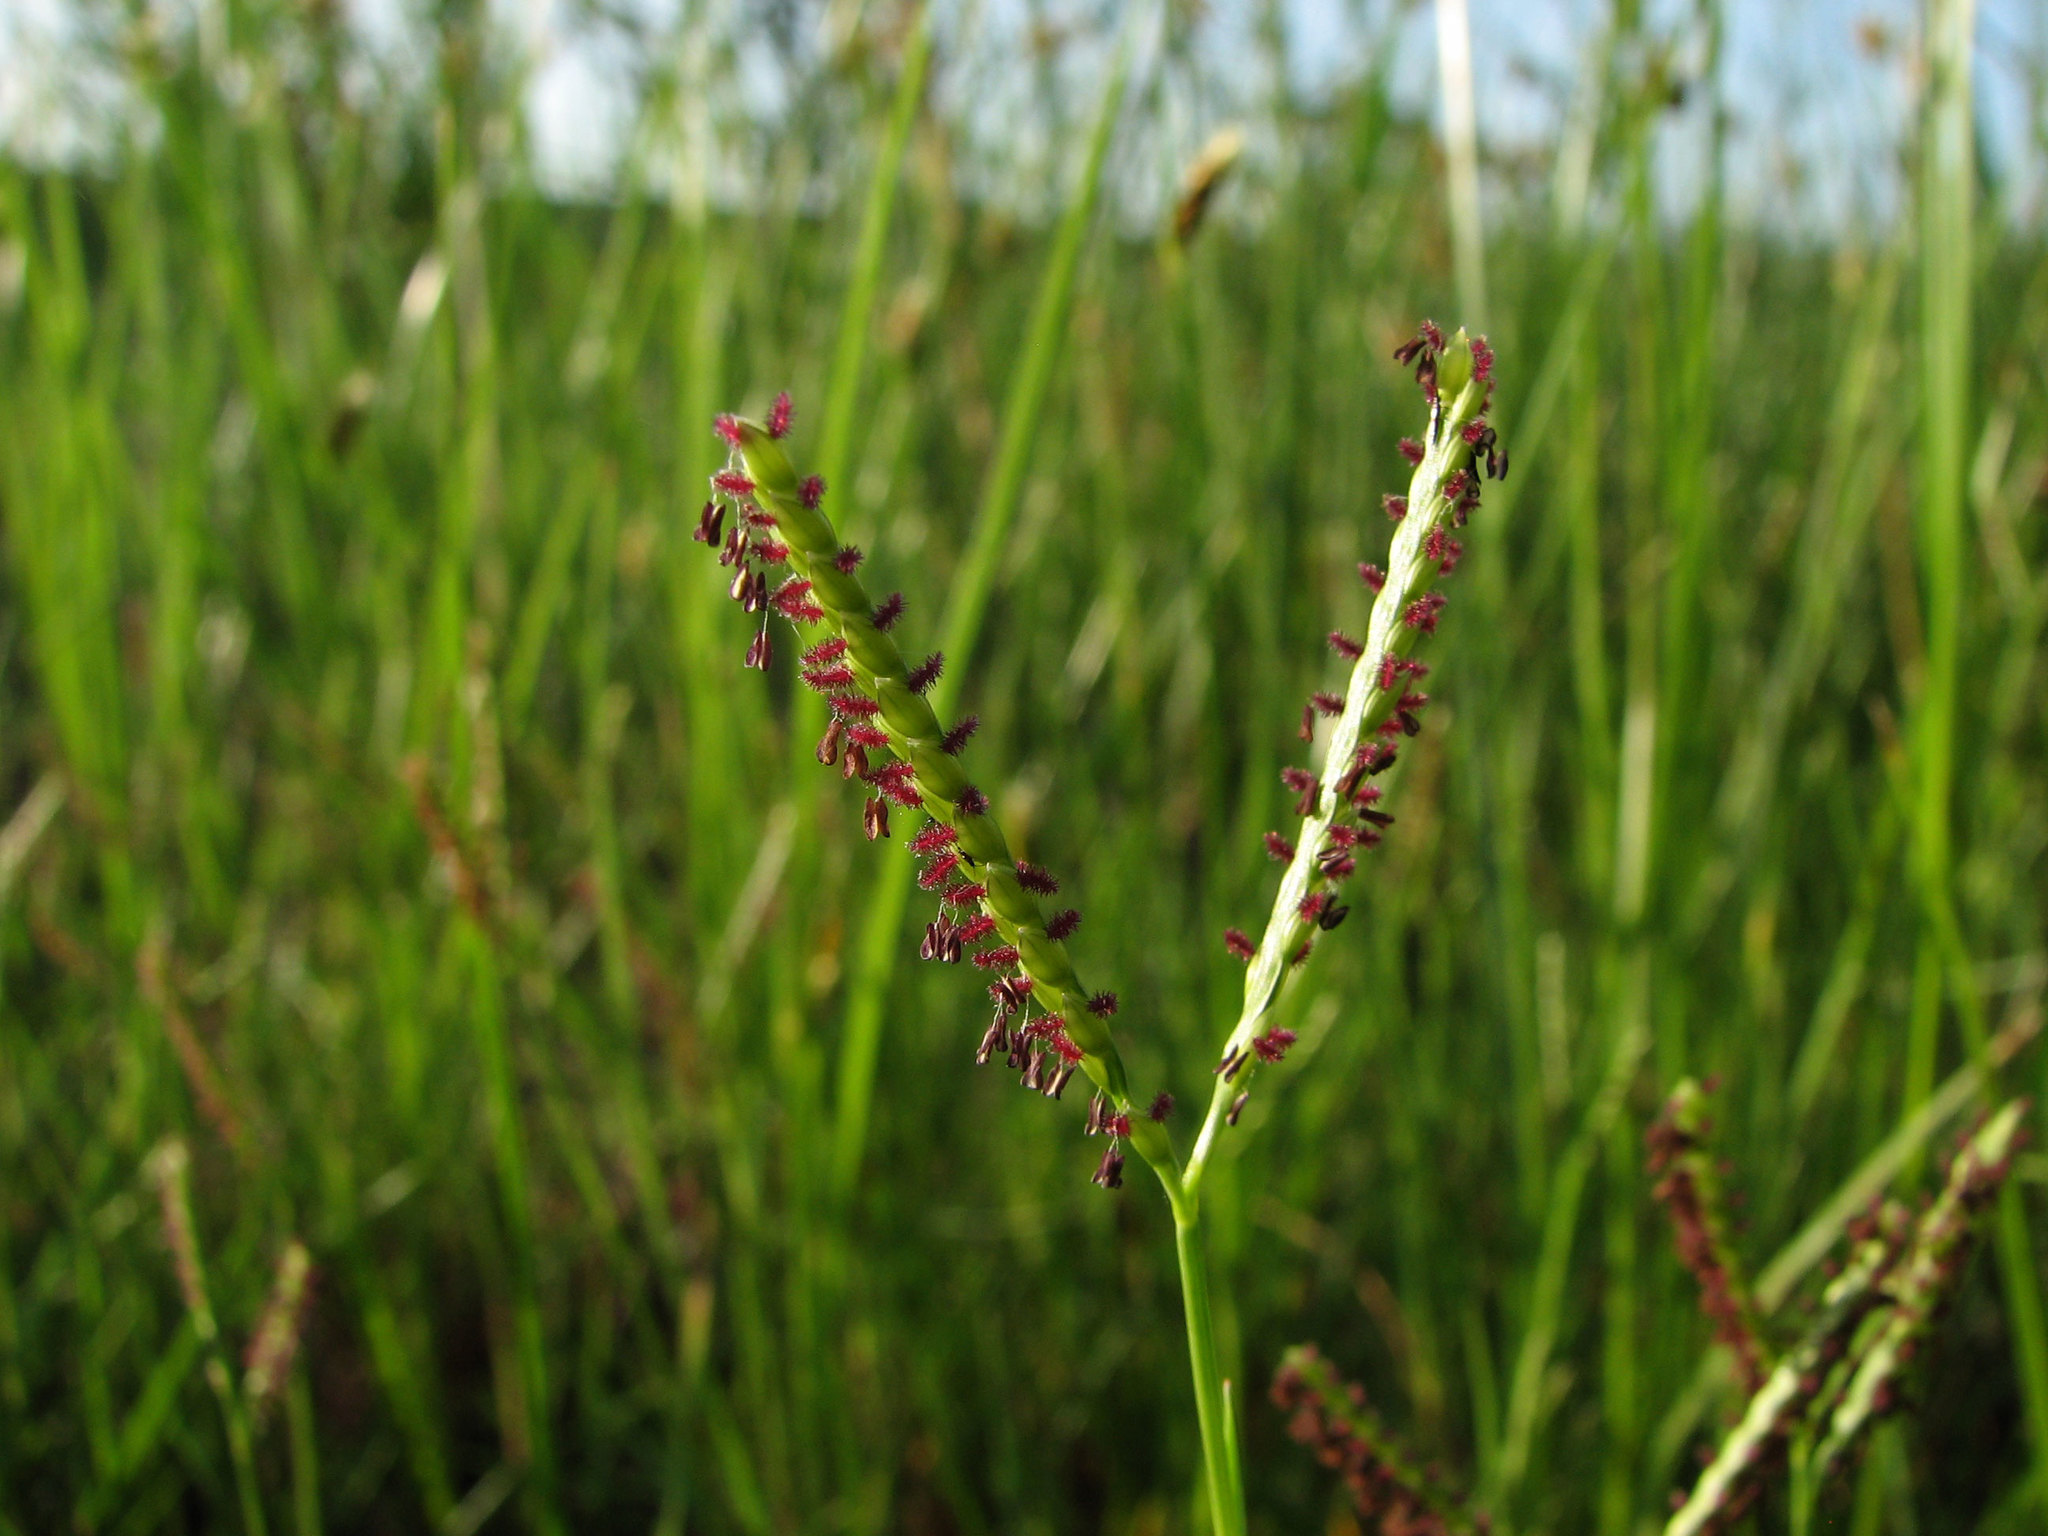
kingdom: Plantae
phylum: Tracheophyta
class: Liliopsida
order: Poales
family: Poaceae
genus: Paspalum
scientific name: Paspalum distichum
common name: Knotgrass
